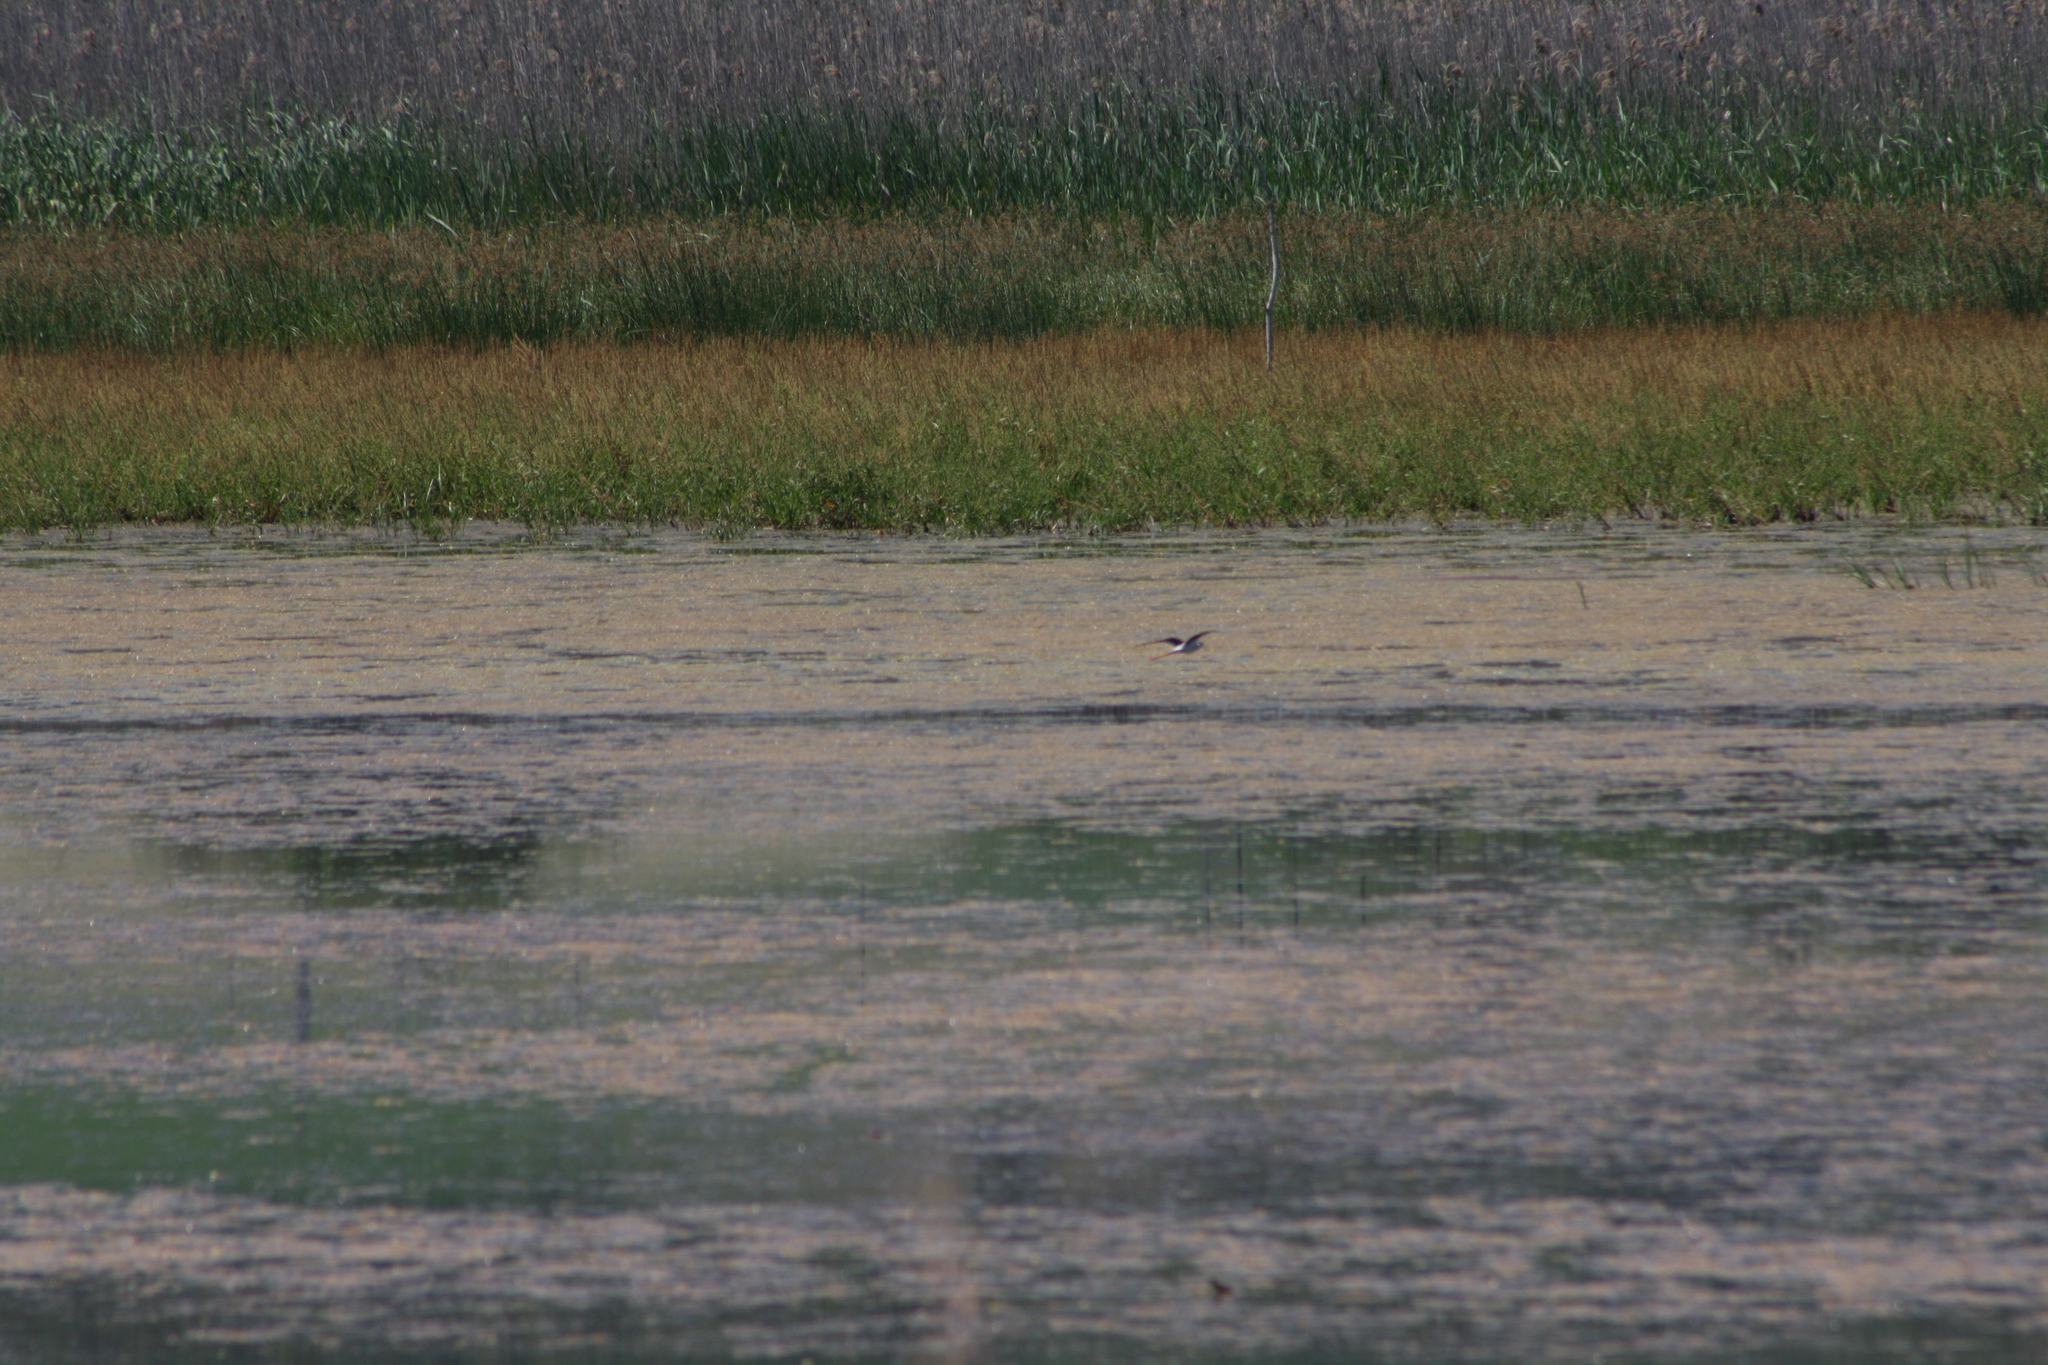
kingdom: Animalia
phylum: Chordata
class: Aves
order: Charadriiformes
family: Recurvirostridae
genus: Himantopus
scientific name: Himantopus himantopus
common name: Black-winged stilt
